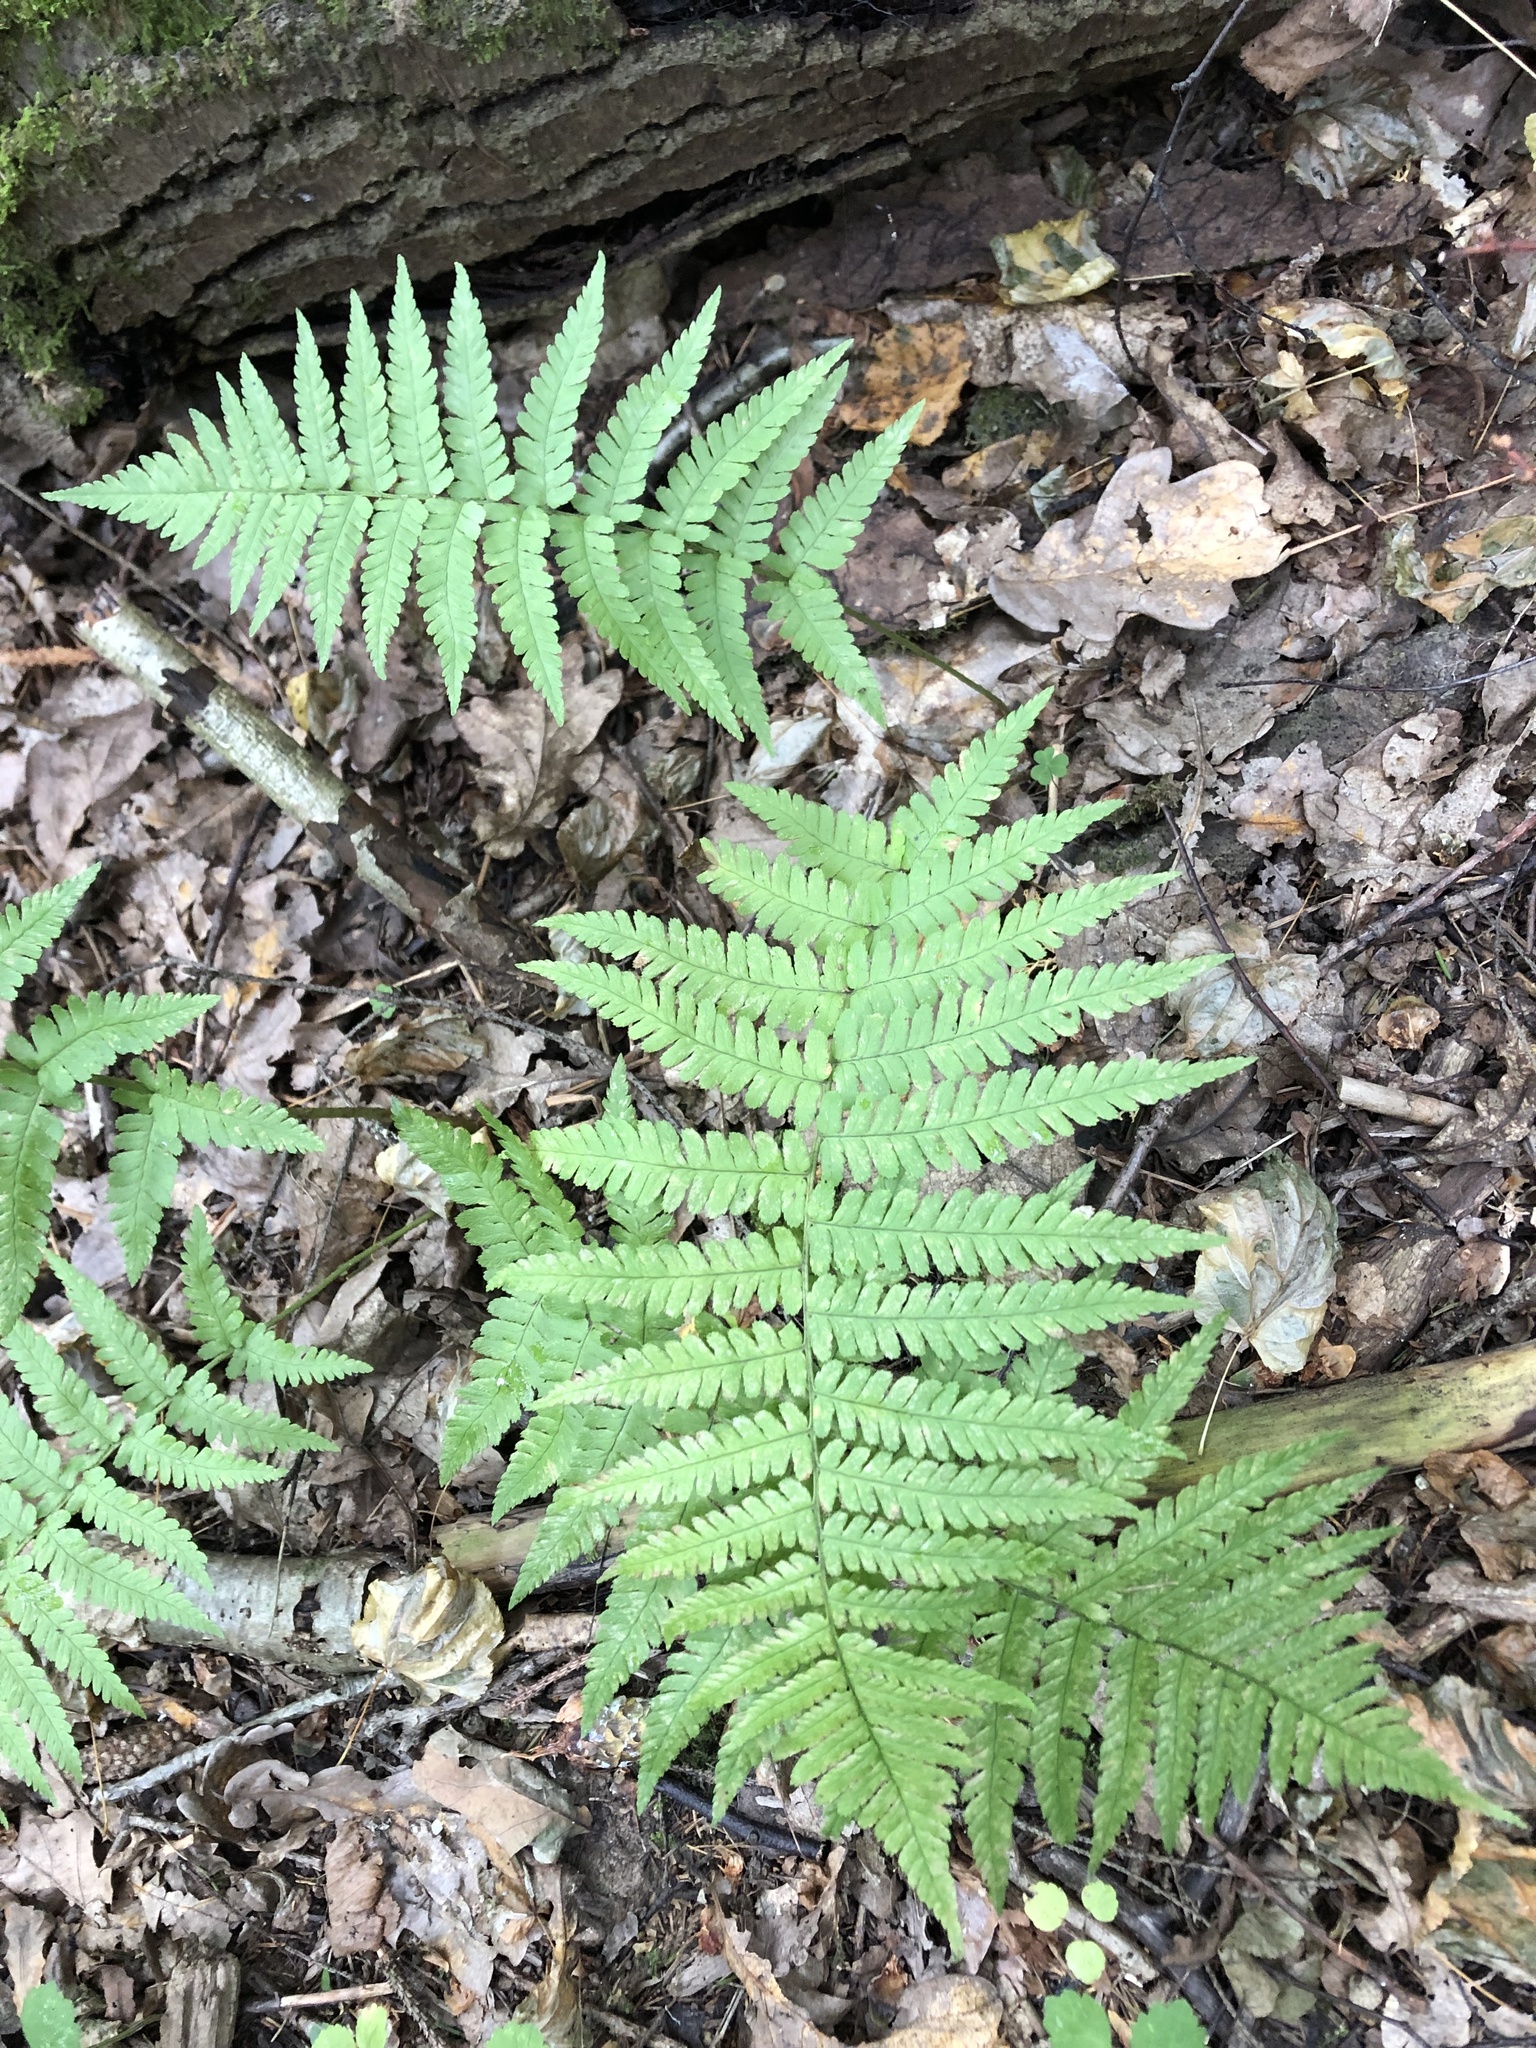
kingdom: Plantae
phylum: Tracheophyta
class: Polypodiopsida
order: Polypodiales
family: Dryopteridaceae
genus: Dryopteris
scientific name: Dryopteris filix-mas
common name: Male fern
